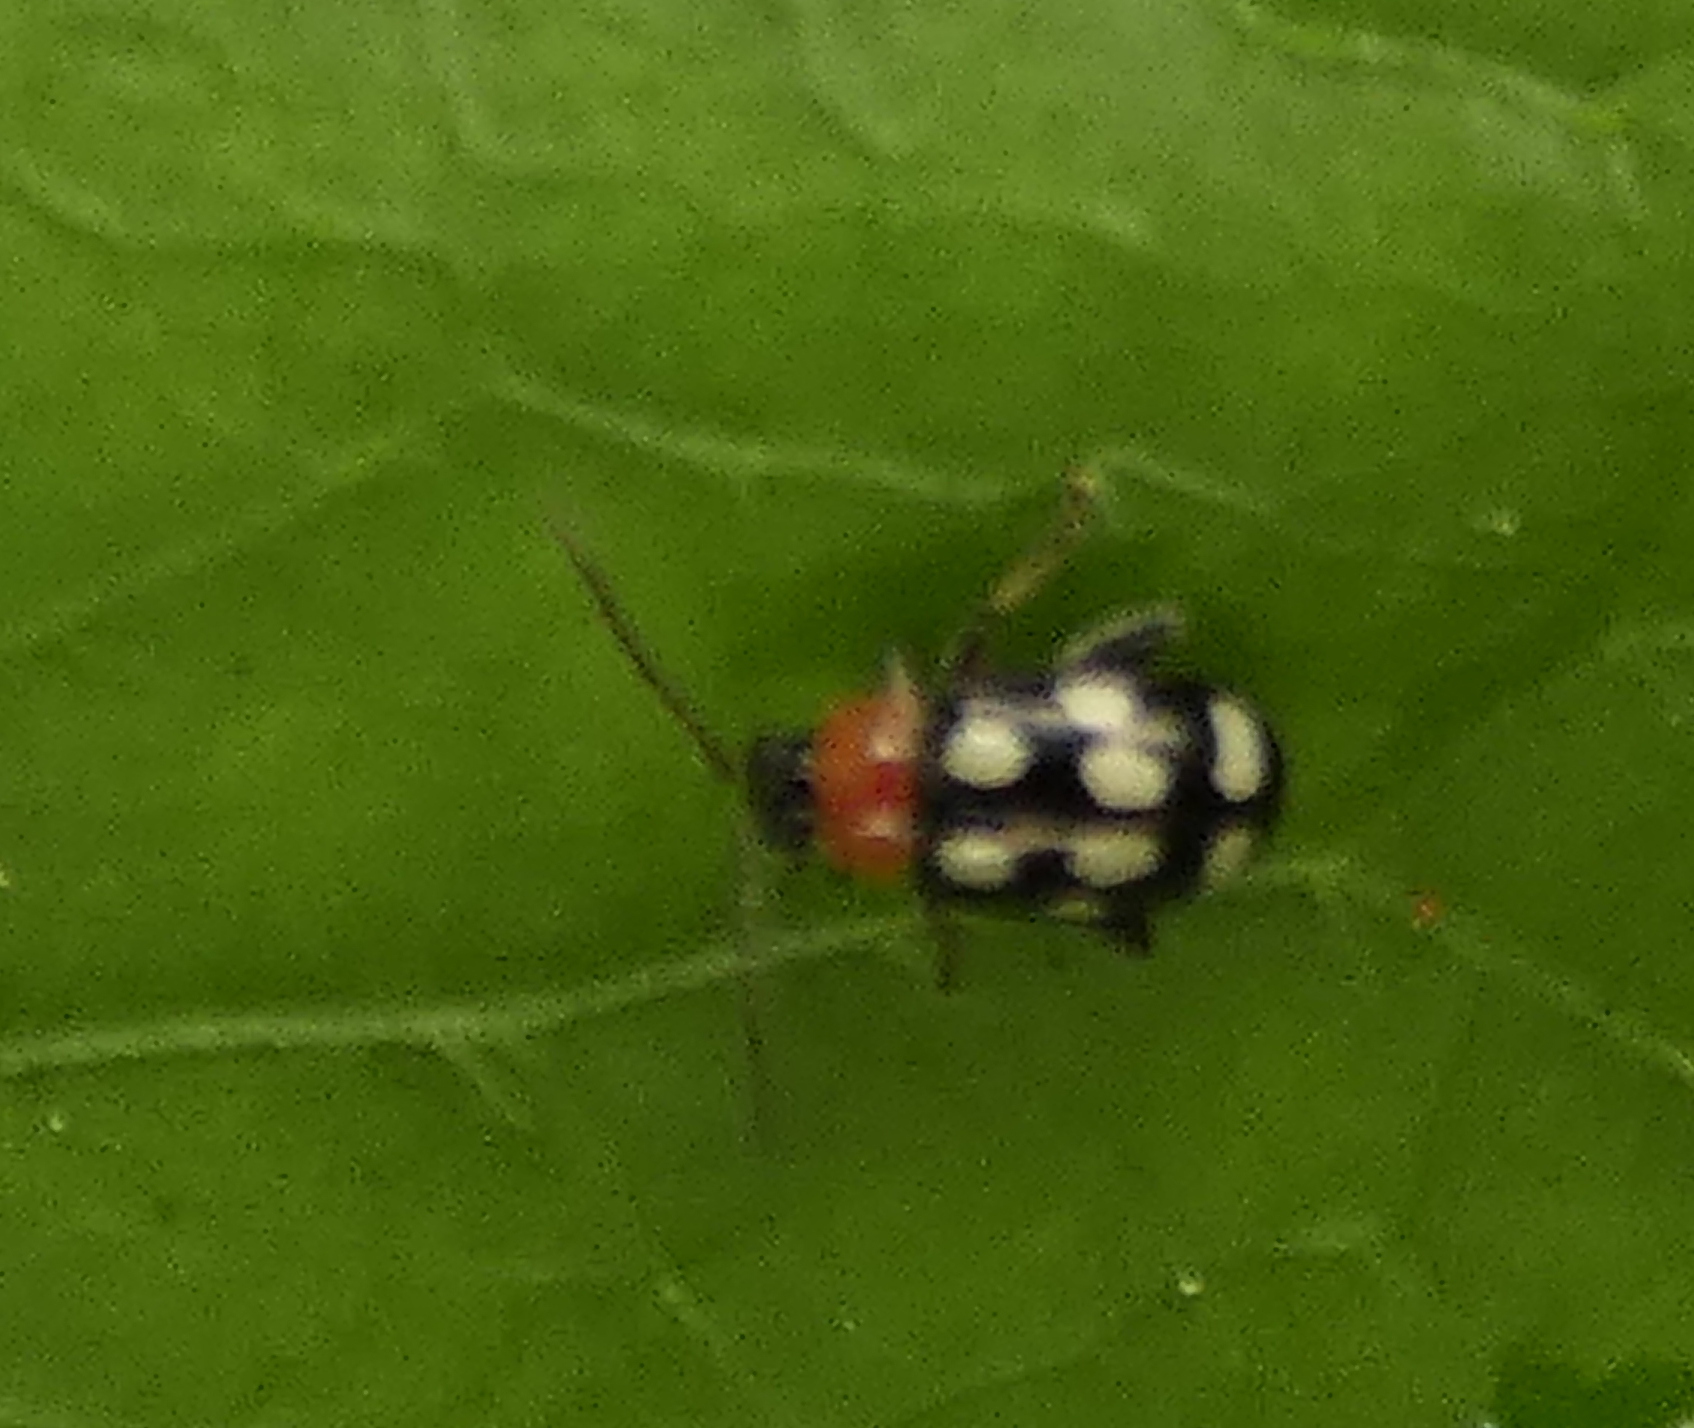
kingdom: Animalia
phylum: Arthropoda
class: Insecta
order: Coleoptera
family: Chrysomelidae
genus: Phenrica
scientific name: Phenrica austriaca
